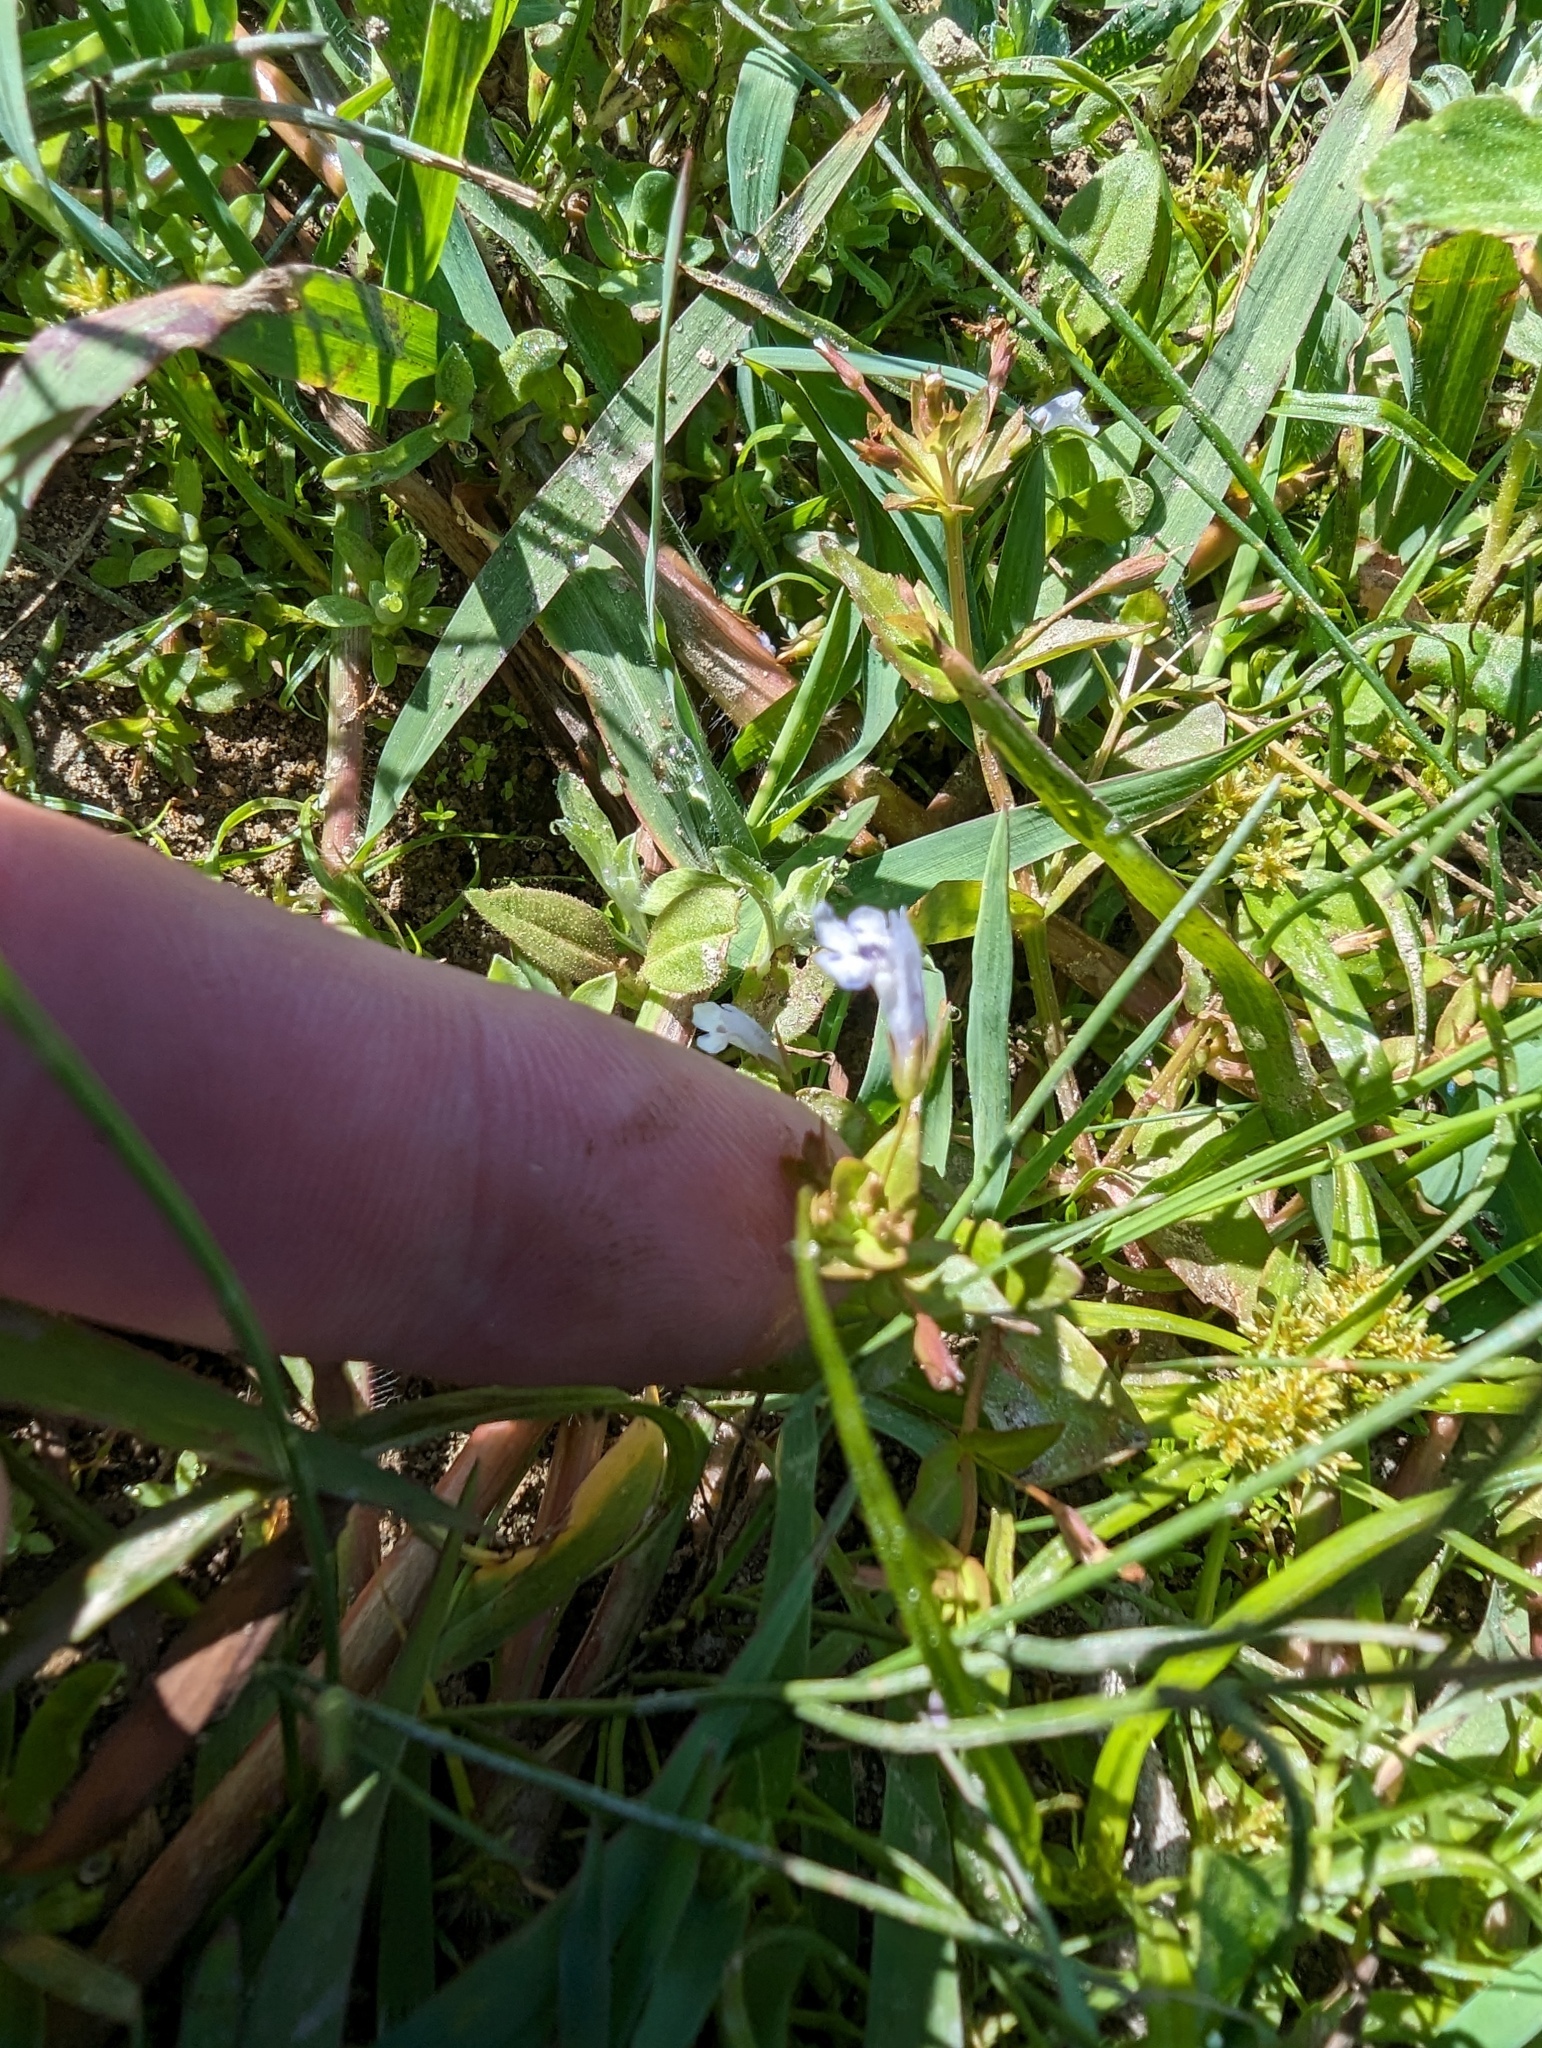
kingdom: Plantae
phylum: Tracheophyta
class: Magnoliopsida
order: Lamiales
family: Linderniaceae
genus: Lindernia
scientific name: Lindernia dubia
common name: Annual false pimpernel
